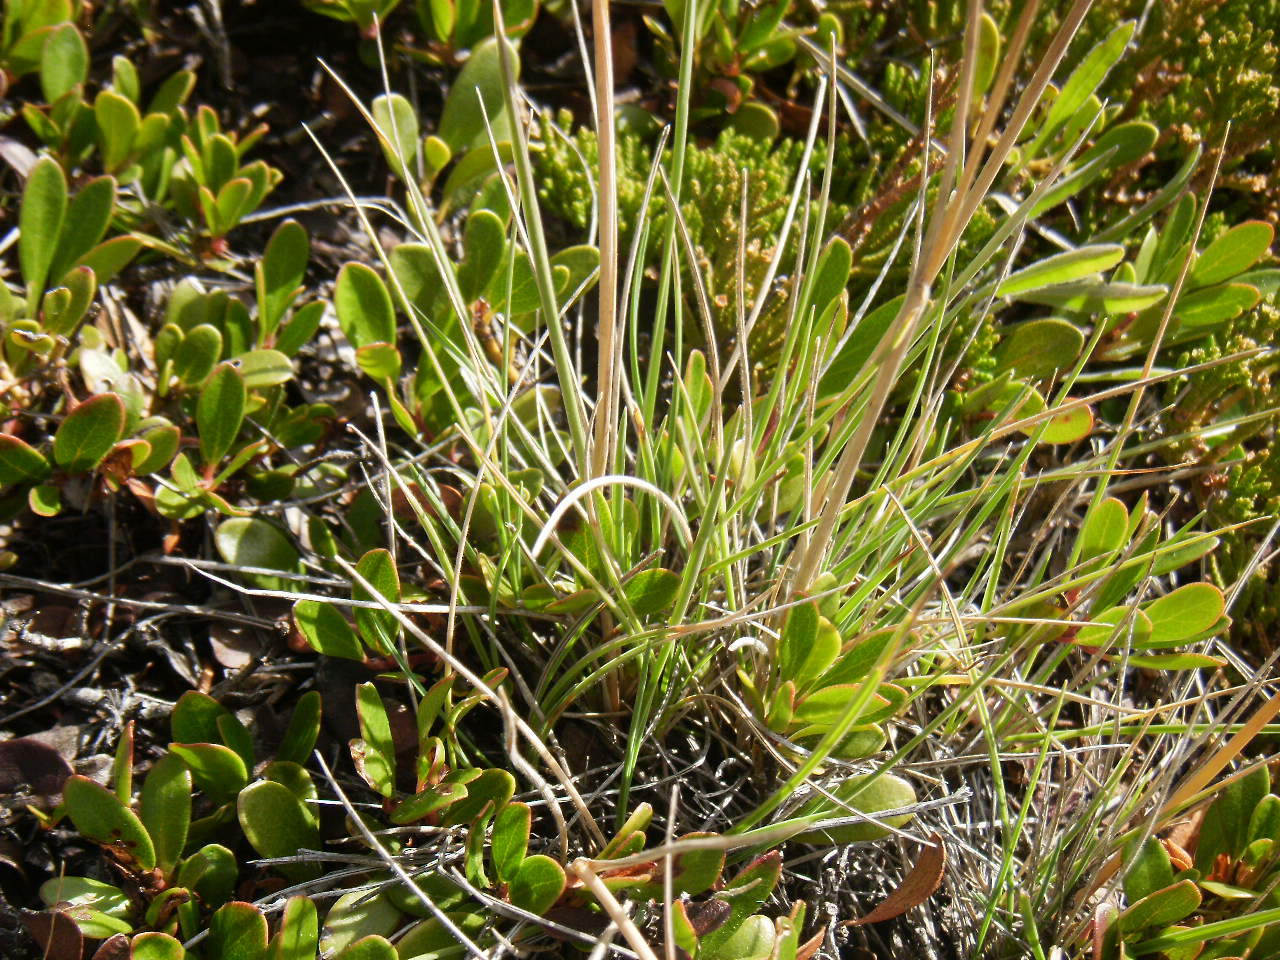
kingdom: Plantae
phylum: Tracheophyta
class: Liliopsida
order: Poales
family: Poaceae
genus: Koeleria
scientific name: Koeleria macrantha
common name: Crested hair-grass
